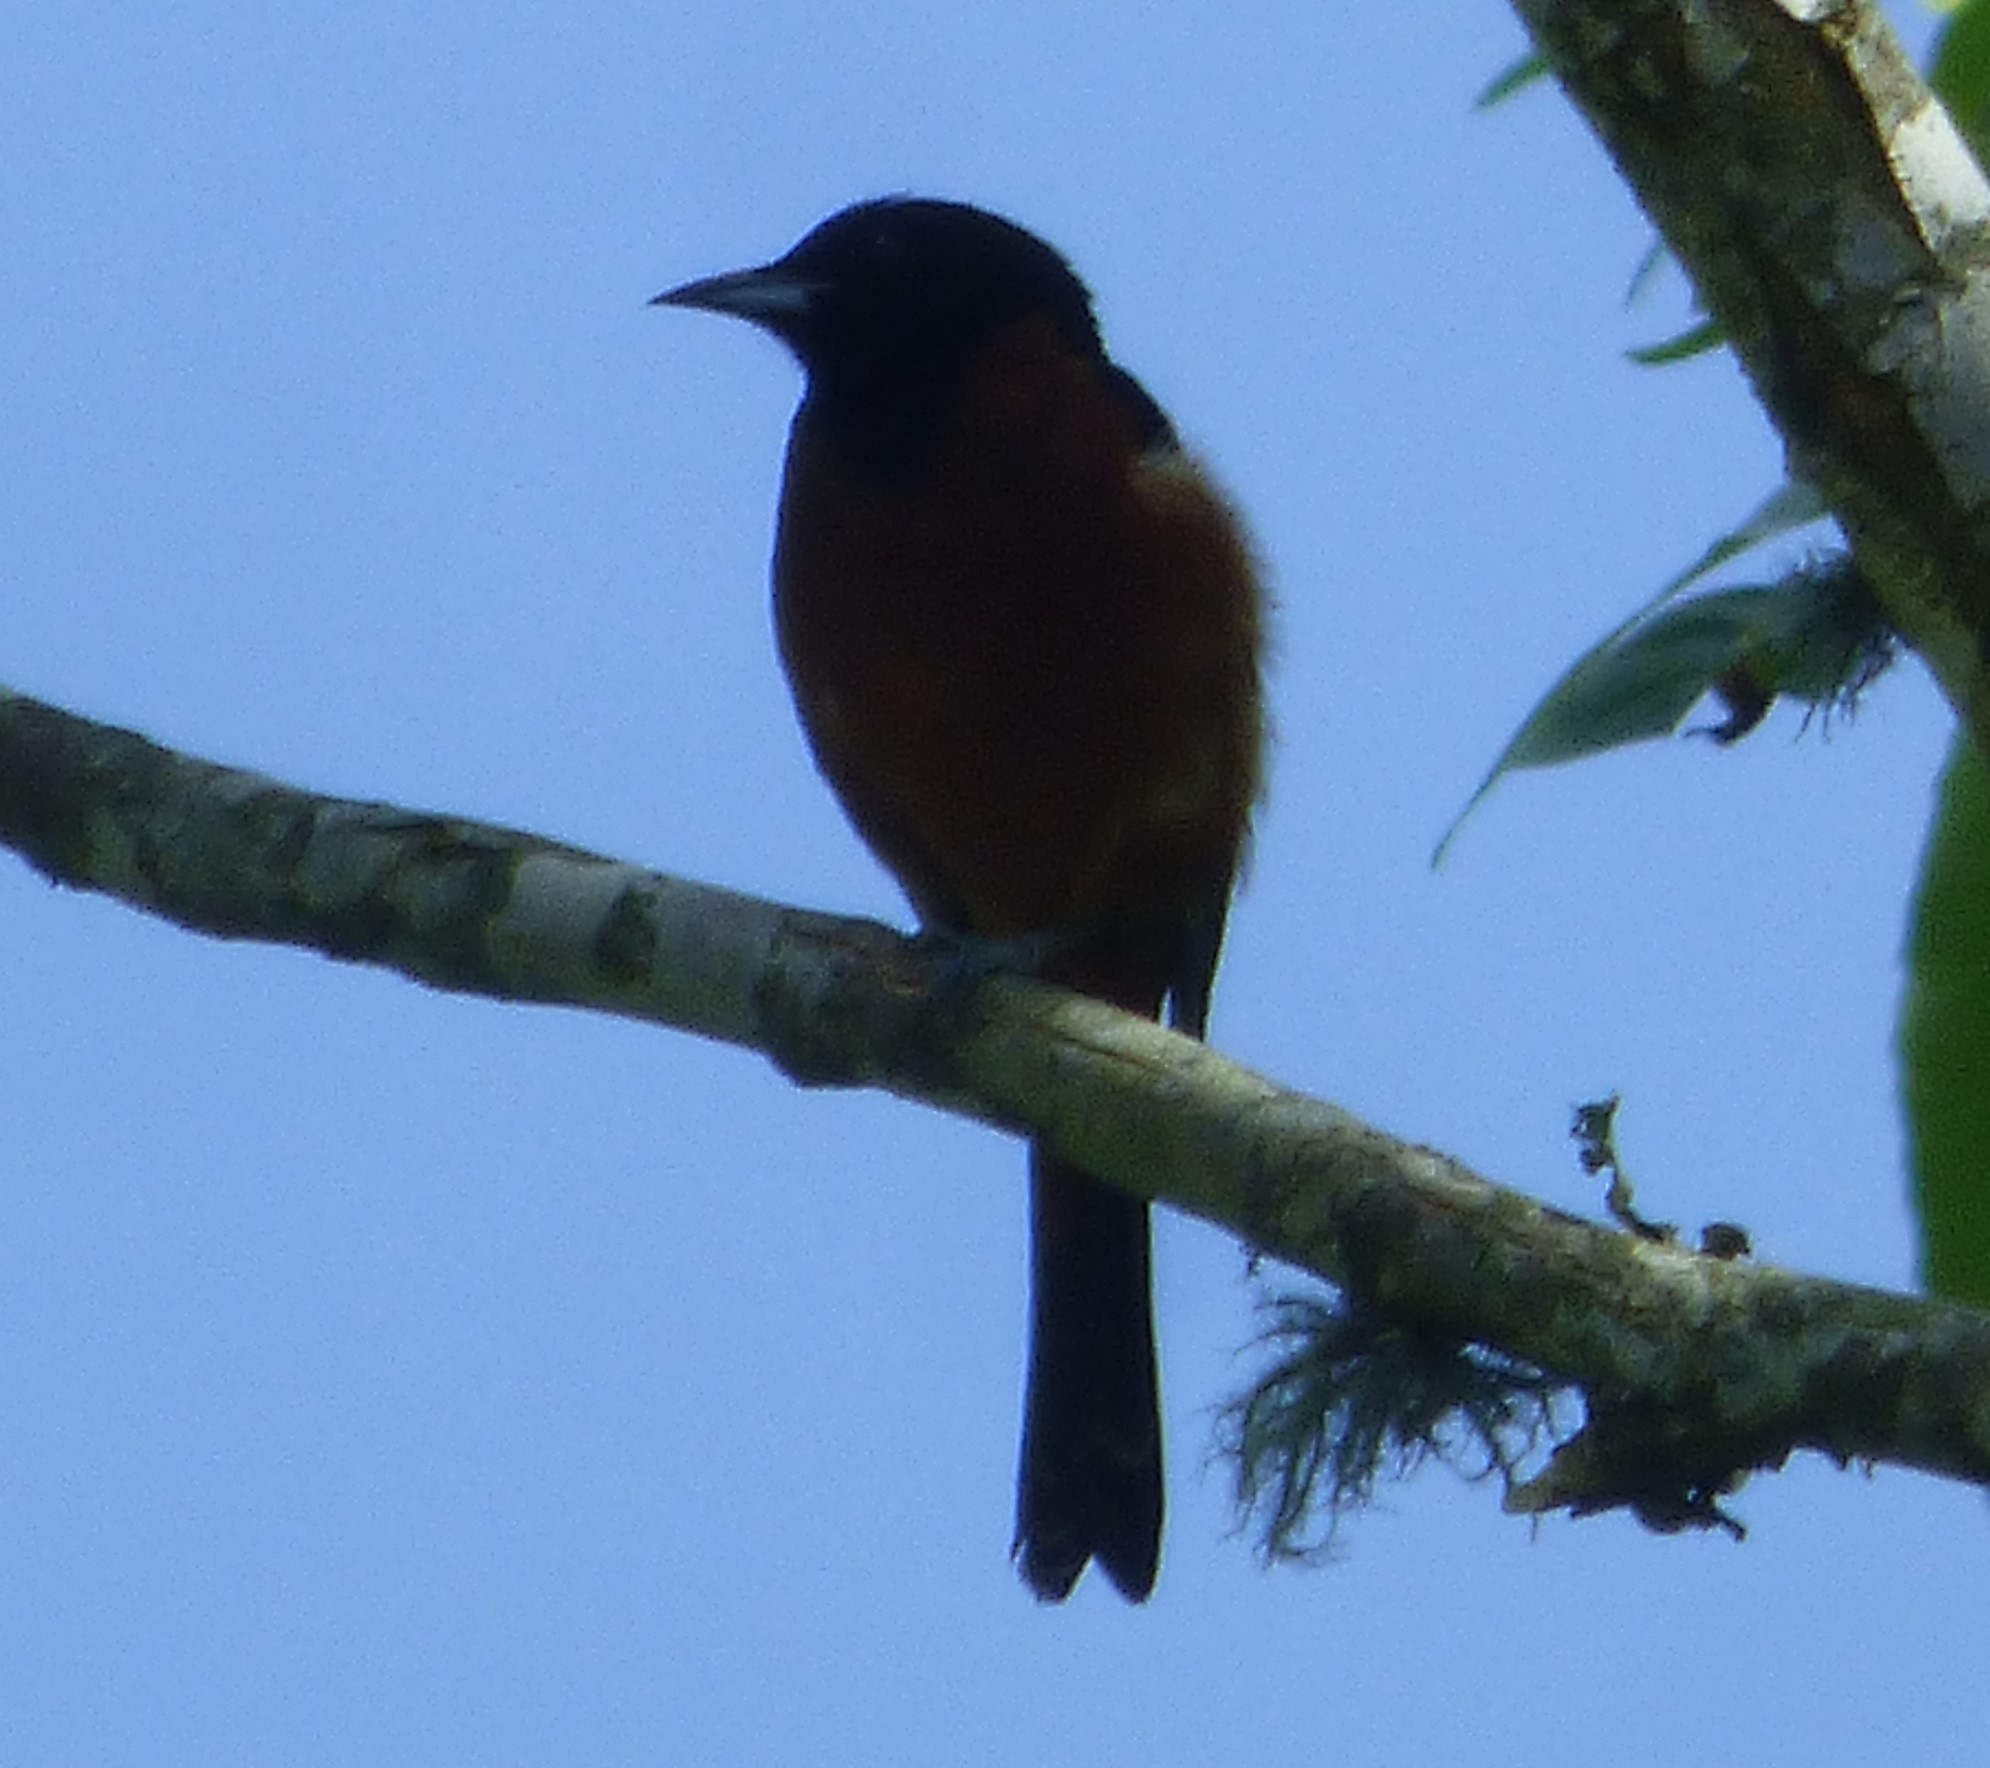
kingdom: Animalia
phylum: Chordata
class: Aves
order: Passeriformes
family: Icteridae
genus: Icterus
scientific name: Icterus spurius
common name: Orchard oriole
